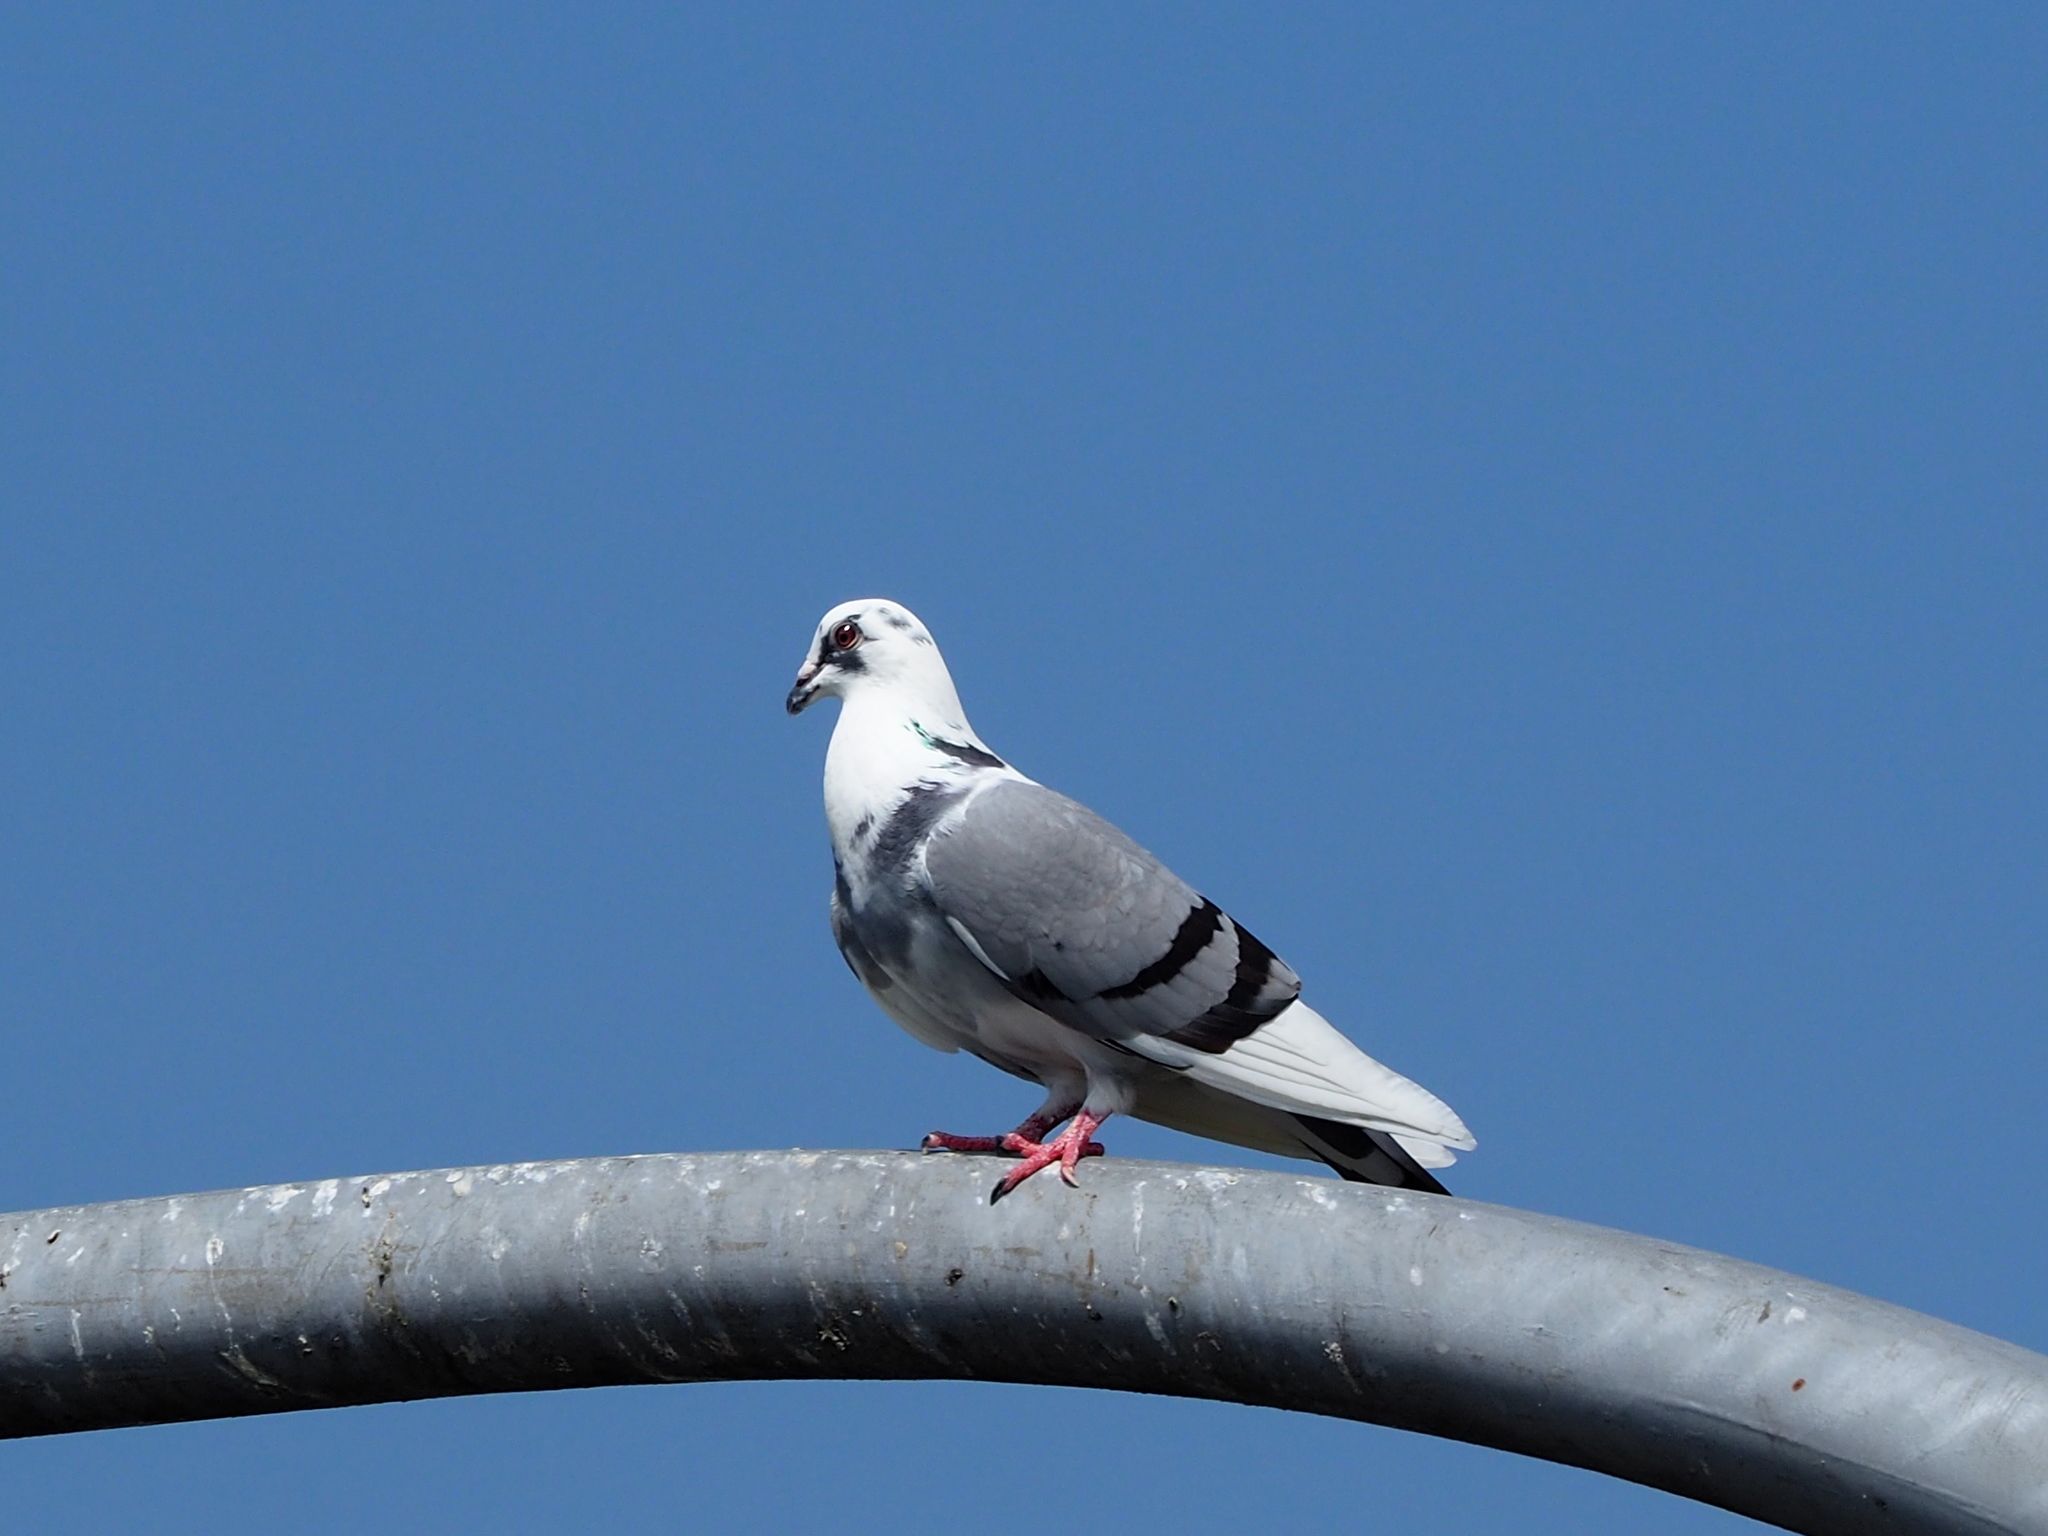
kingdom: Animalia
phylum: Chordata
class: Aves
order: Columbiformes
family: Columbidae
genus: Columba
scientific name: Columba livia
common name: Rock pigeon
